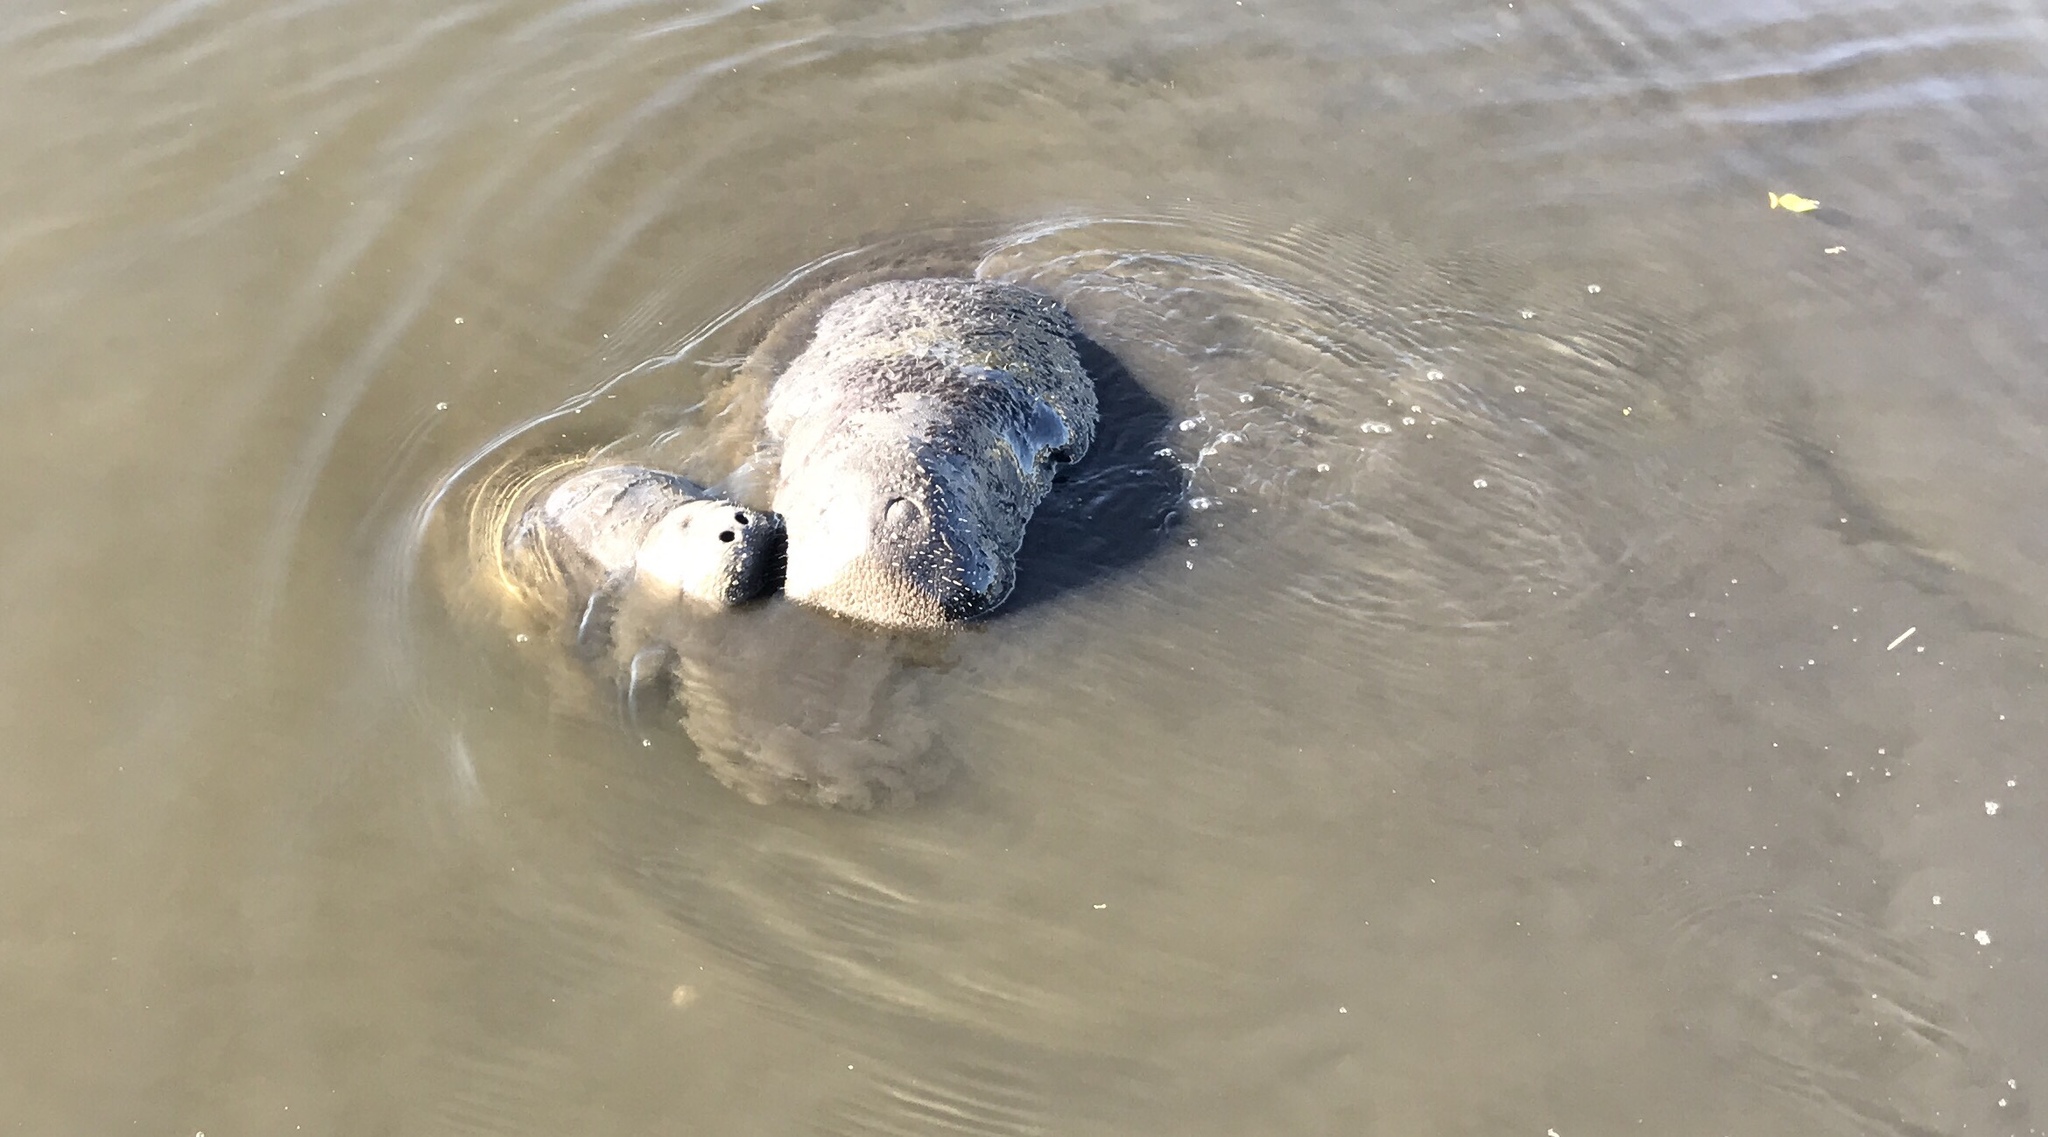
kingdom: Animalia
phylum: Chordata
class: Mammalia
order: Sirenia
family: Trichechidae
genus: Trichechus
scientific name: Trichechus manatus
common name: West indian manatee
